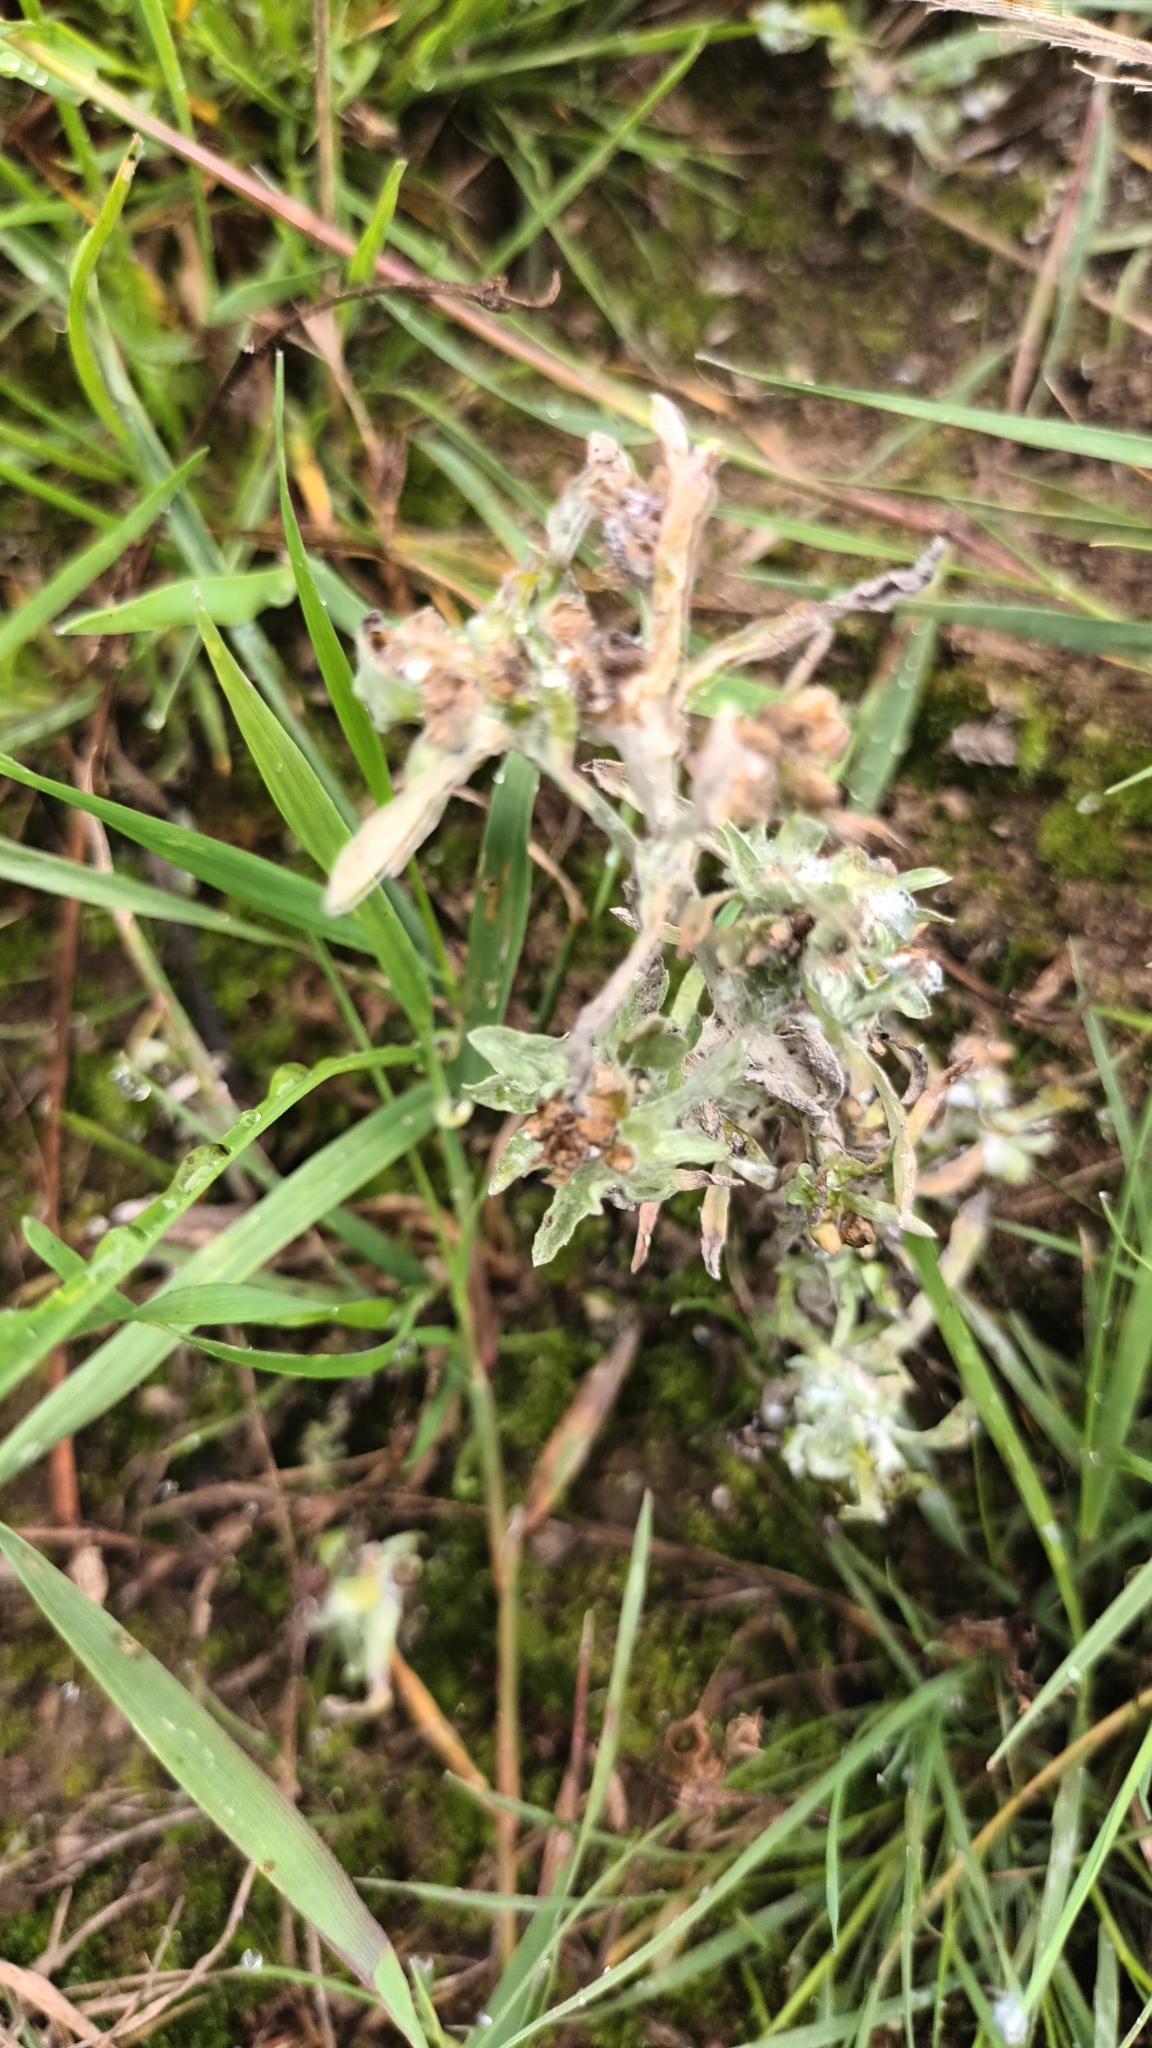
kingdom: Plantae
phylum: Tracheophyta
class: Magnoliopsida
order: Asterales
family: Asteraceae
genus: Gnaphalium
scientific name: Gnaphalium uliginosum
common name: Marsh cudweed
